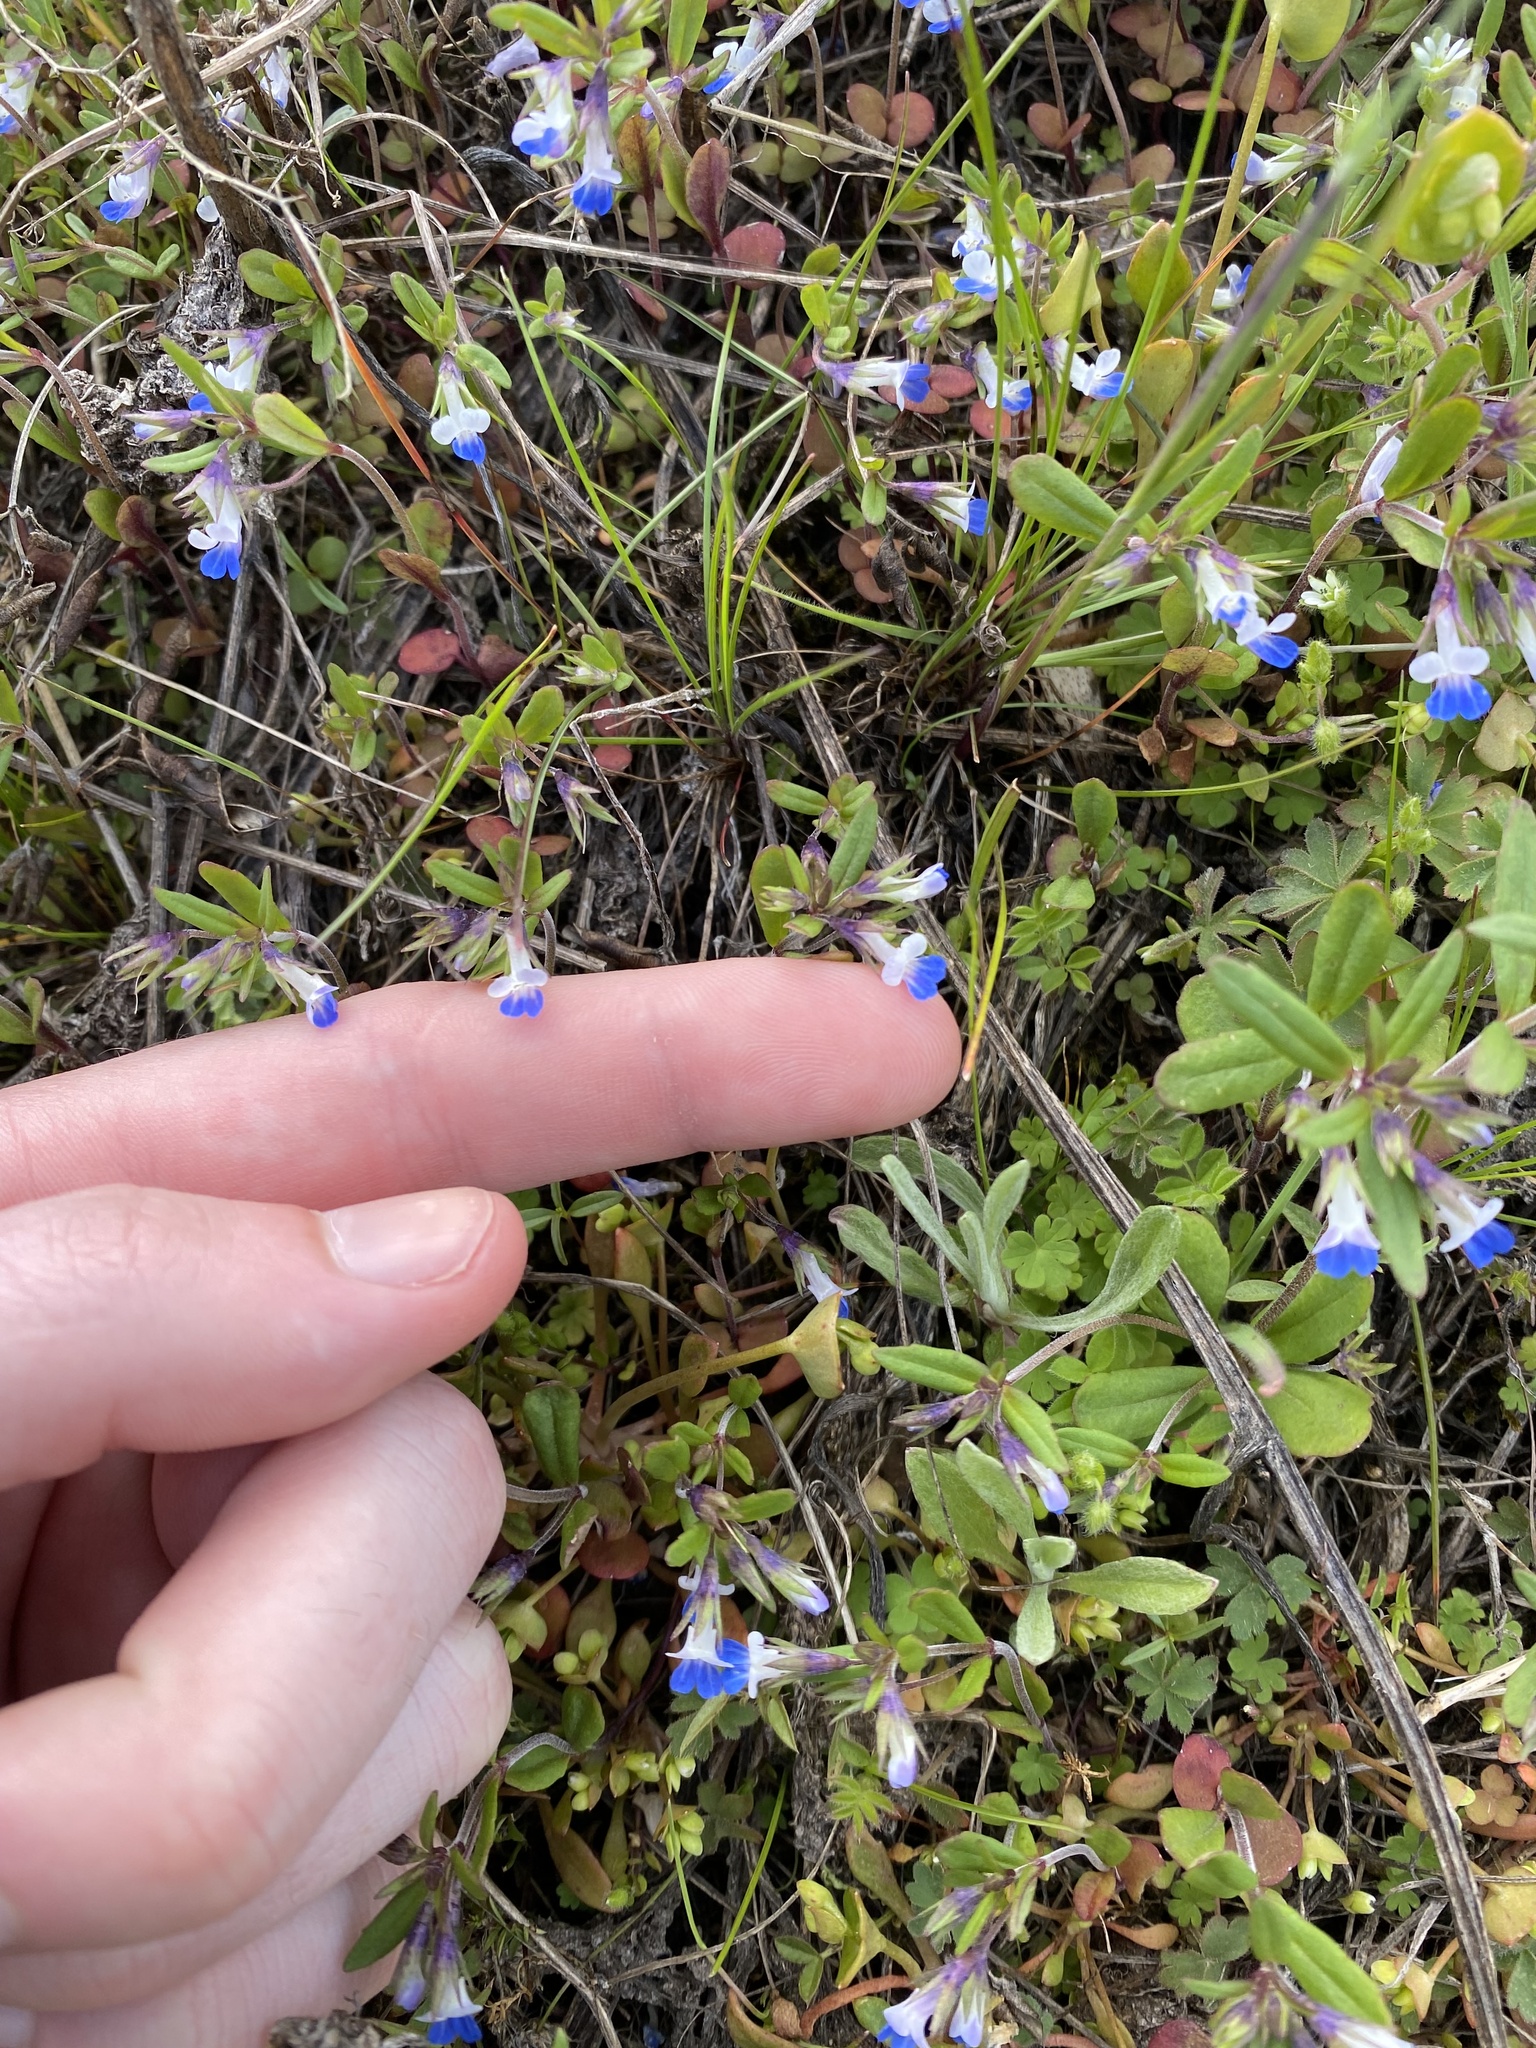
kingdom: Plantae
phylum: Tracheophyta
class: Magnoliopsida
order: Lamiales
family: Plantaginaceae
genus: Collinsia
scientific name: Collinsia parviflora
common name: Blue-lips
